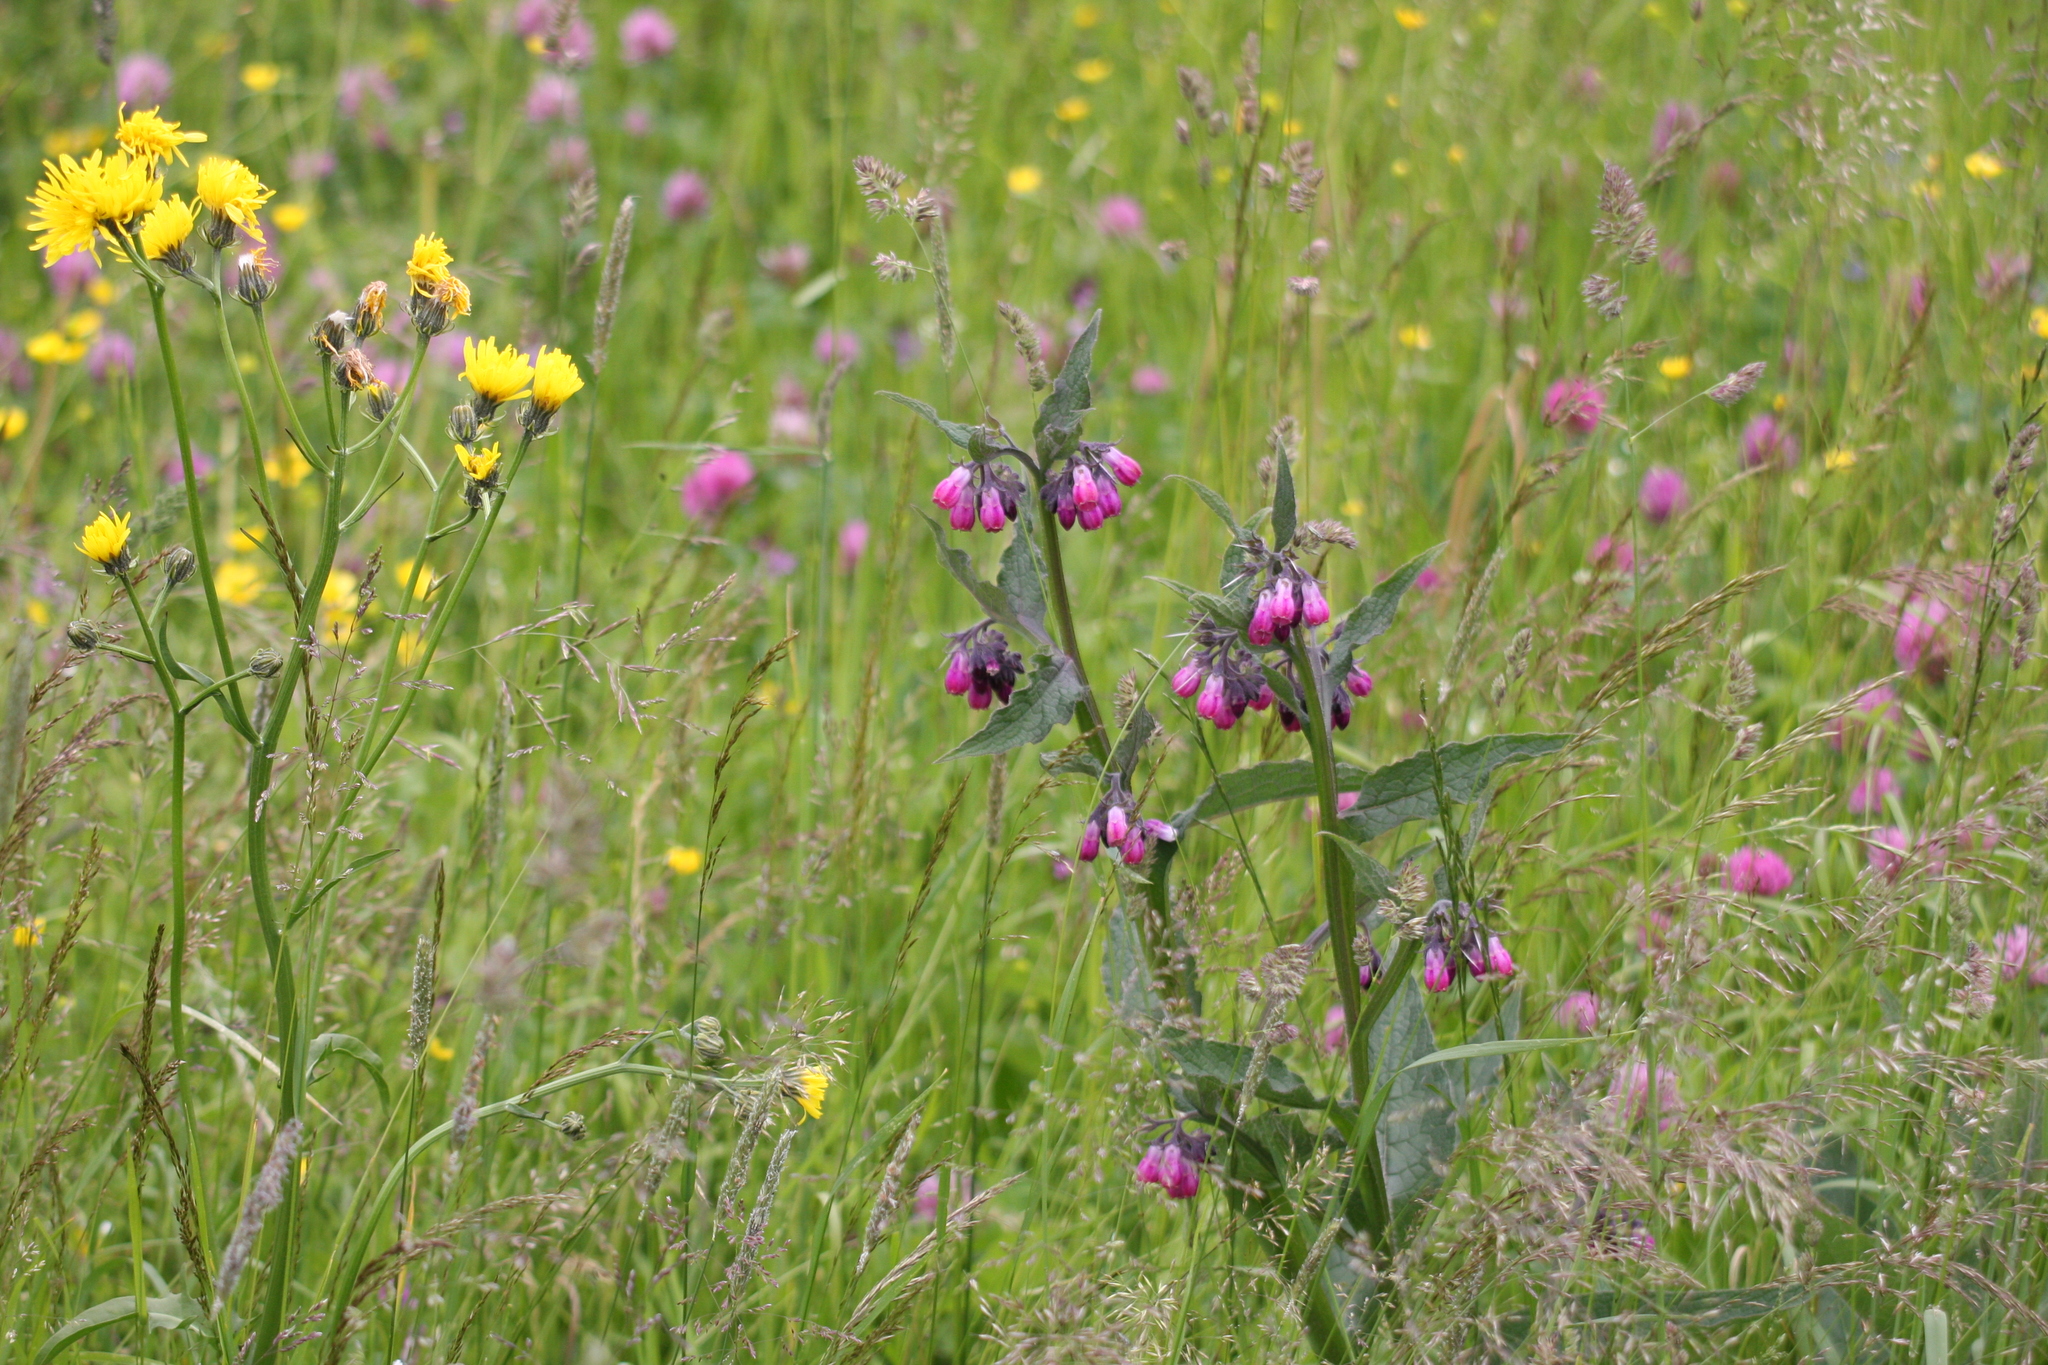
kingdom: Plantae
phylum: Tracheophyta
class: Magnoliopsida
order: Boraginales
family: Boraginaceae
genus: Symphytum
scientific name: Symphytum bohemicum
